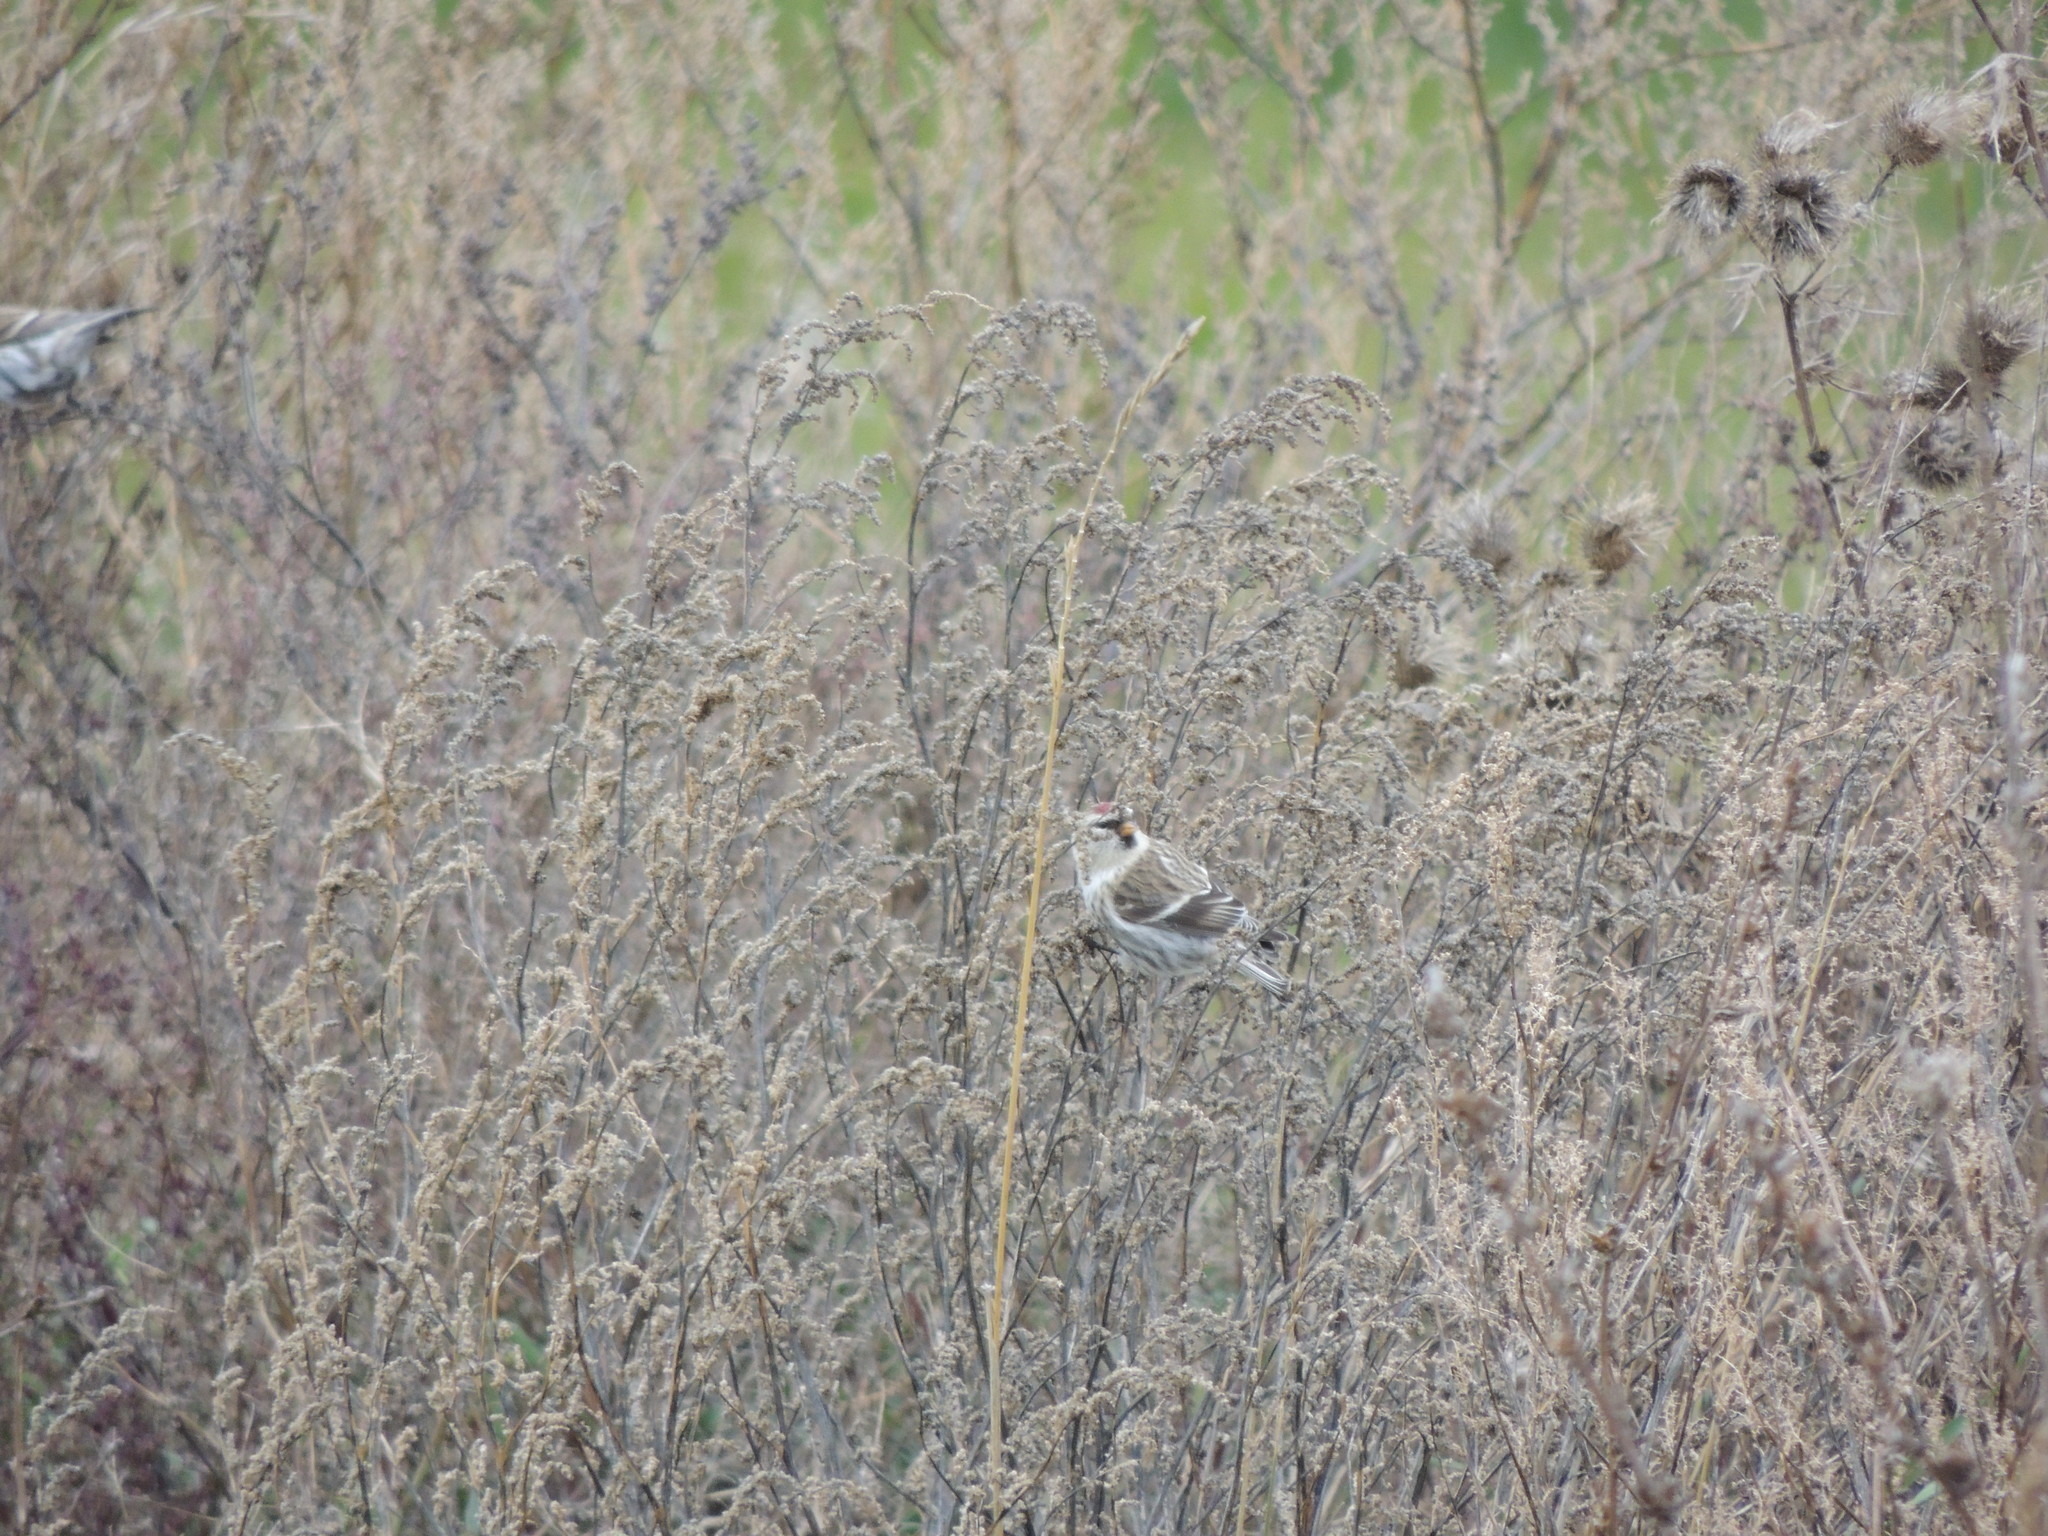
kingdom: Animalia
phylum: Chordata
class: Aves
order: Passeriformes
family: Fringillidae
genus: Acanthis
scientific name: Acanthis flammea
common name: Common redpoll
